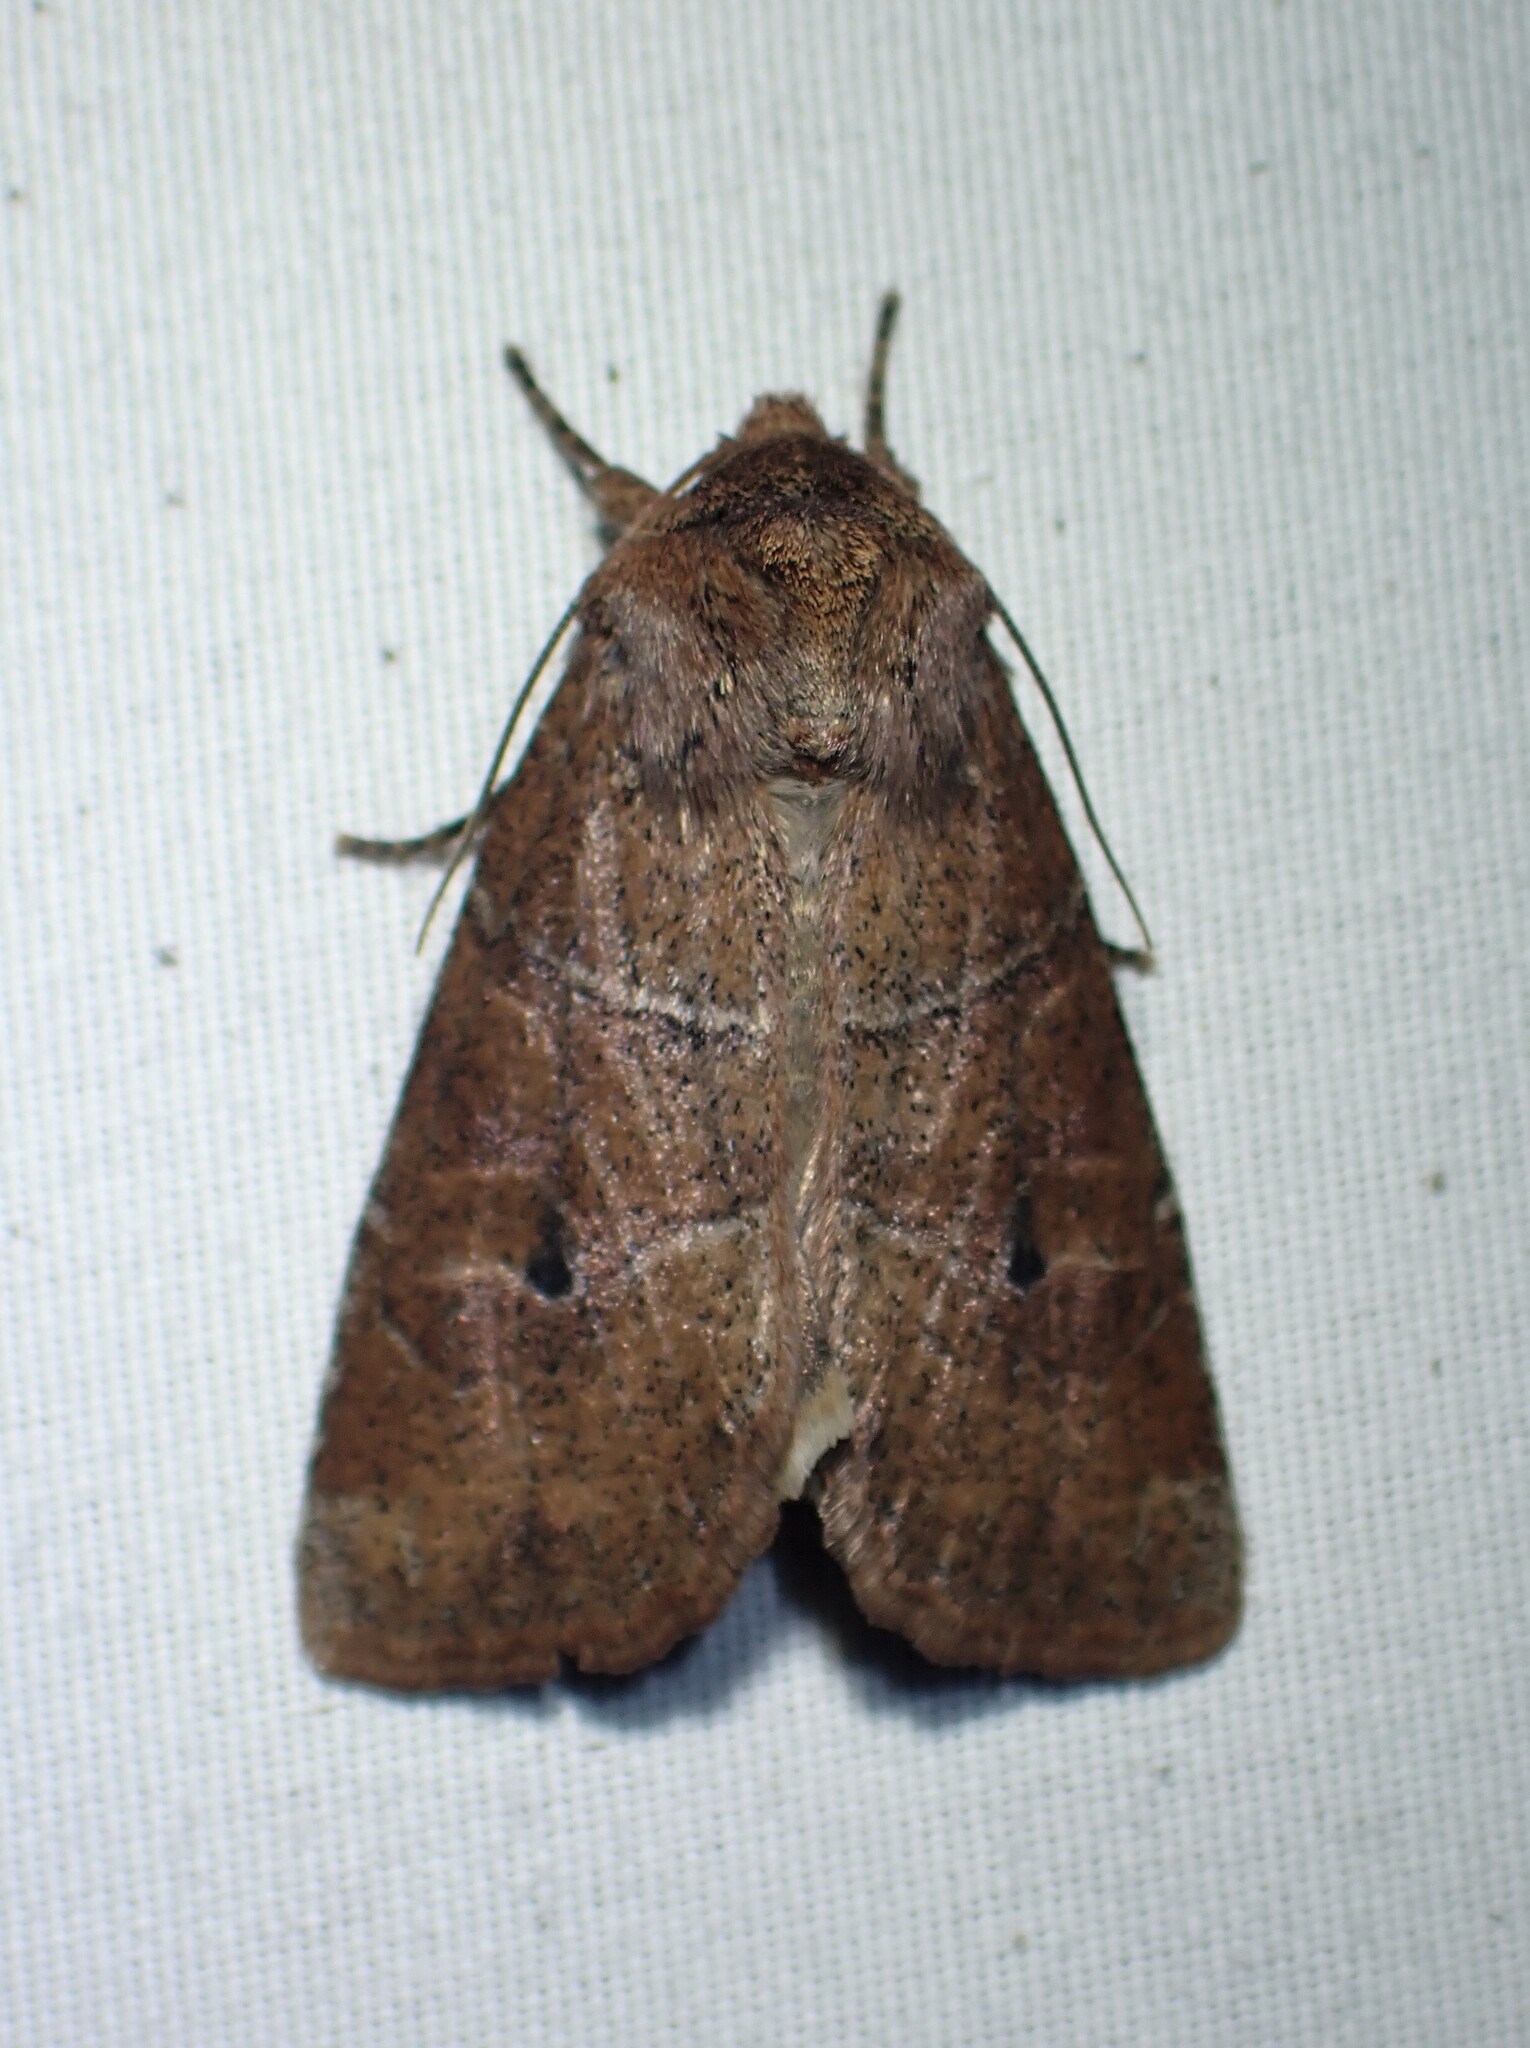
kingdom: Animalia
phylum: Arthropoda
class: Insecta
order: Lepidoptera
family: Noctuidae
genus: Crocigrapha
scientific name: Crocigrapha normani
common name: Norman's quaker
